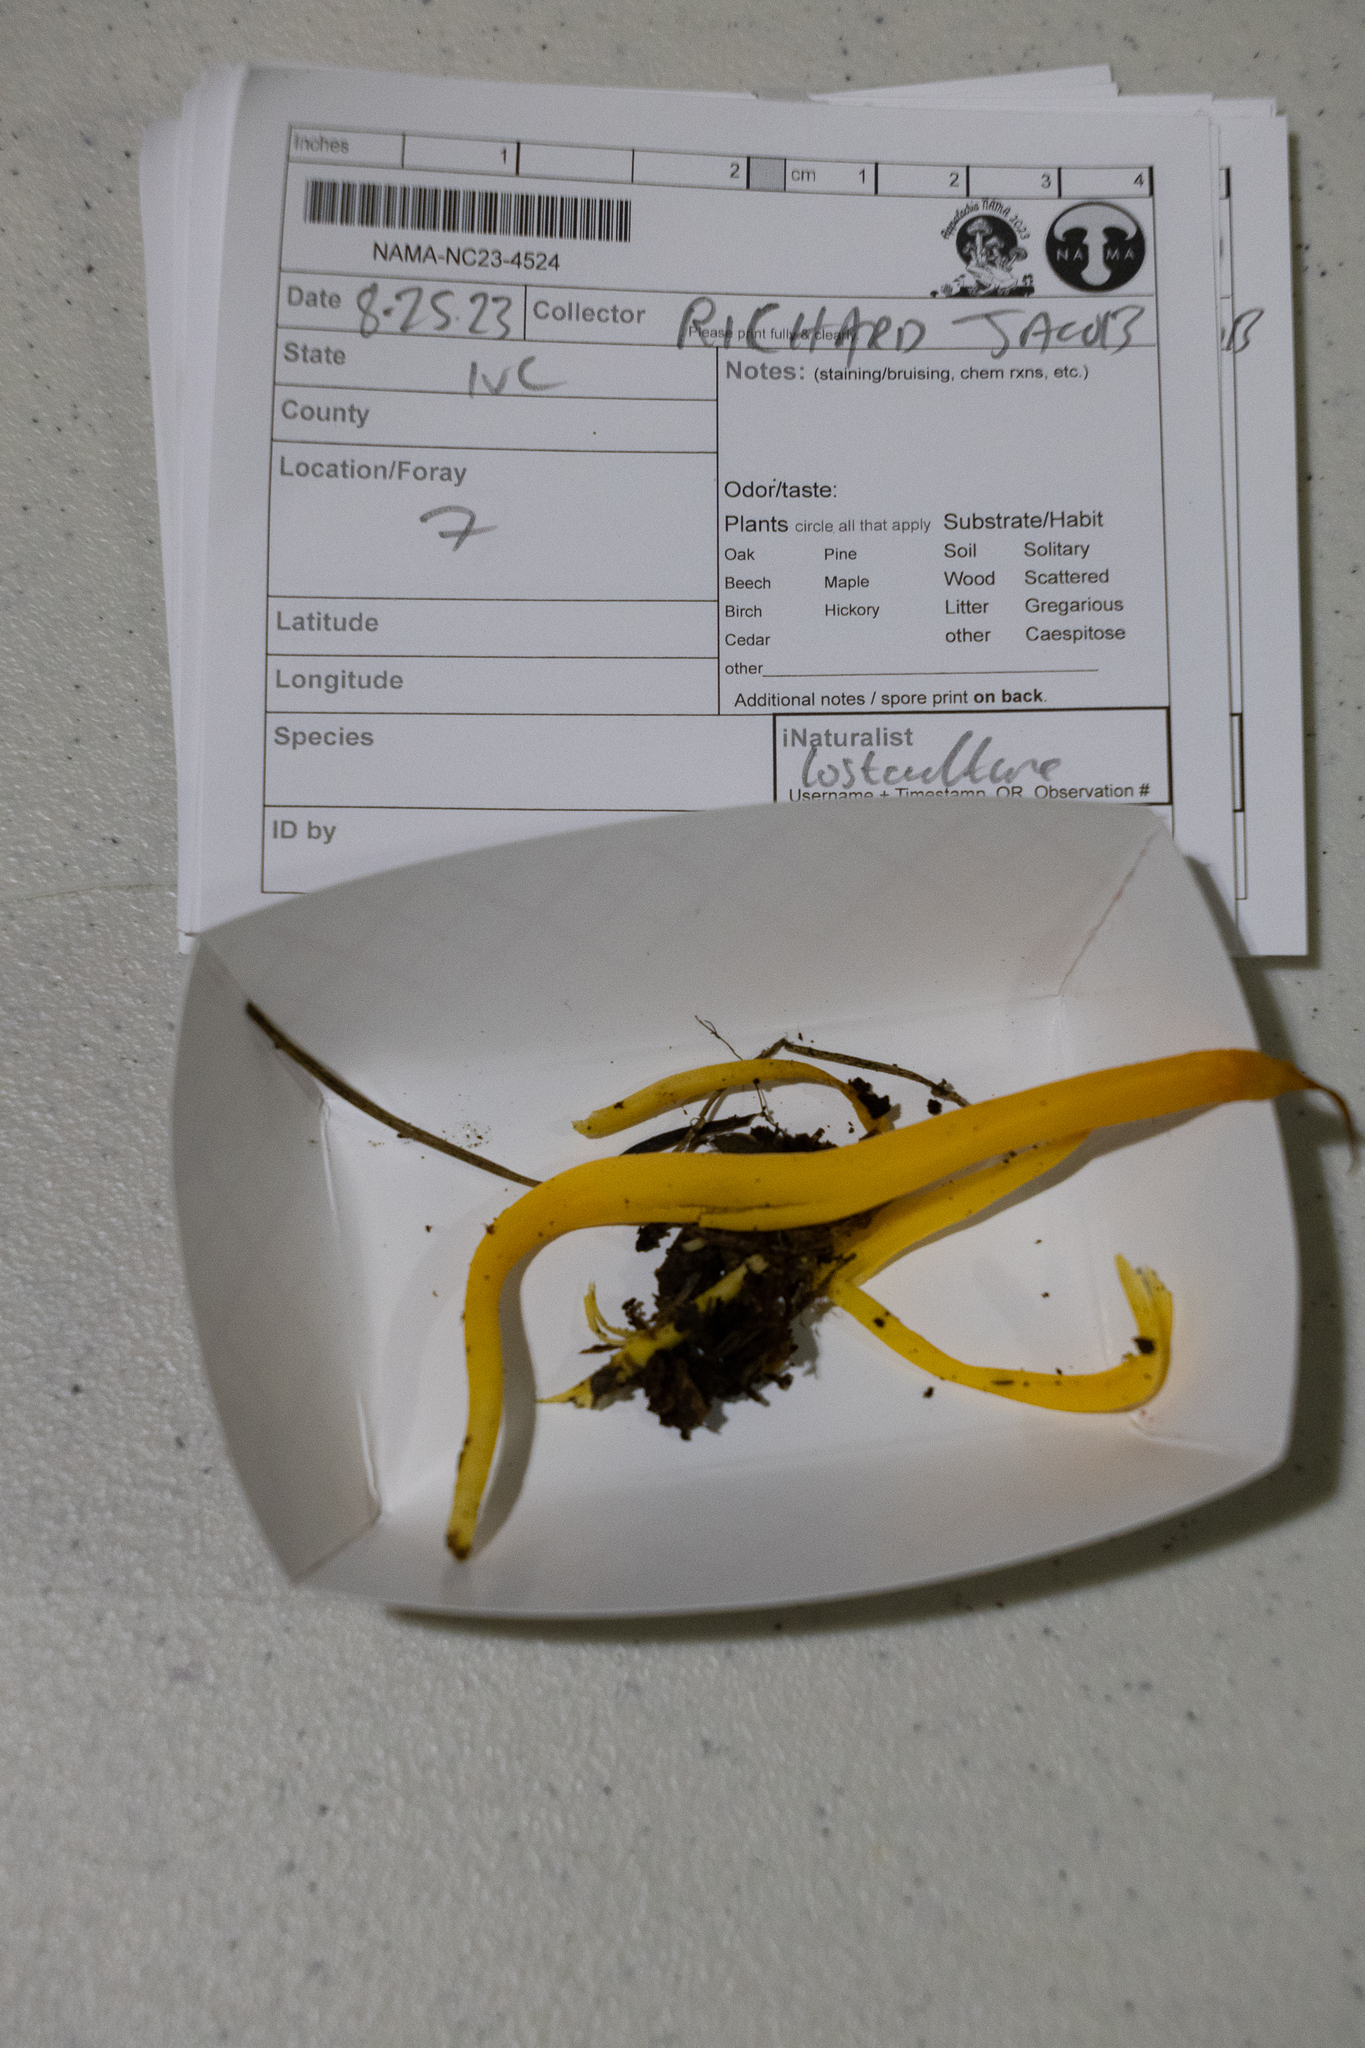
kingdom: Fungi
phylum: Basidiomycota
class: Agaricomycetes
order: Agaricales
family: Clavariaceae
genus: Clavulinopsis
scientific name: Clavulinopsis helvola
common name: Yellow club
